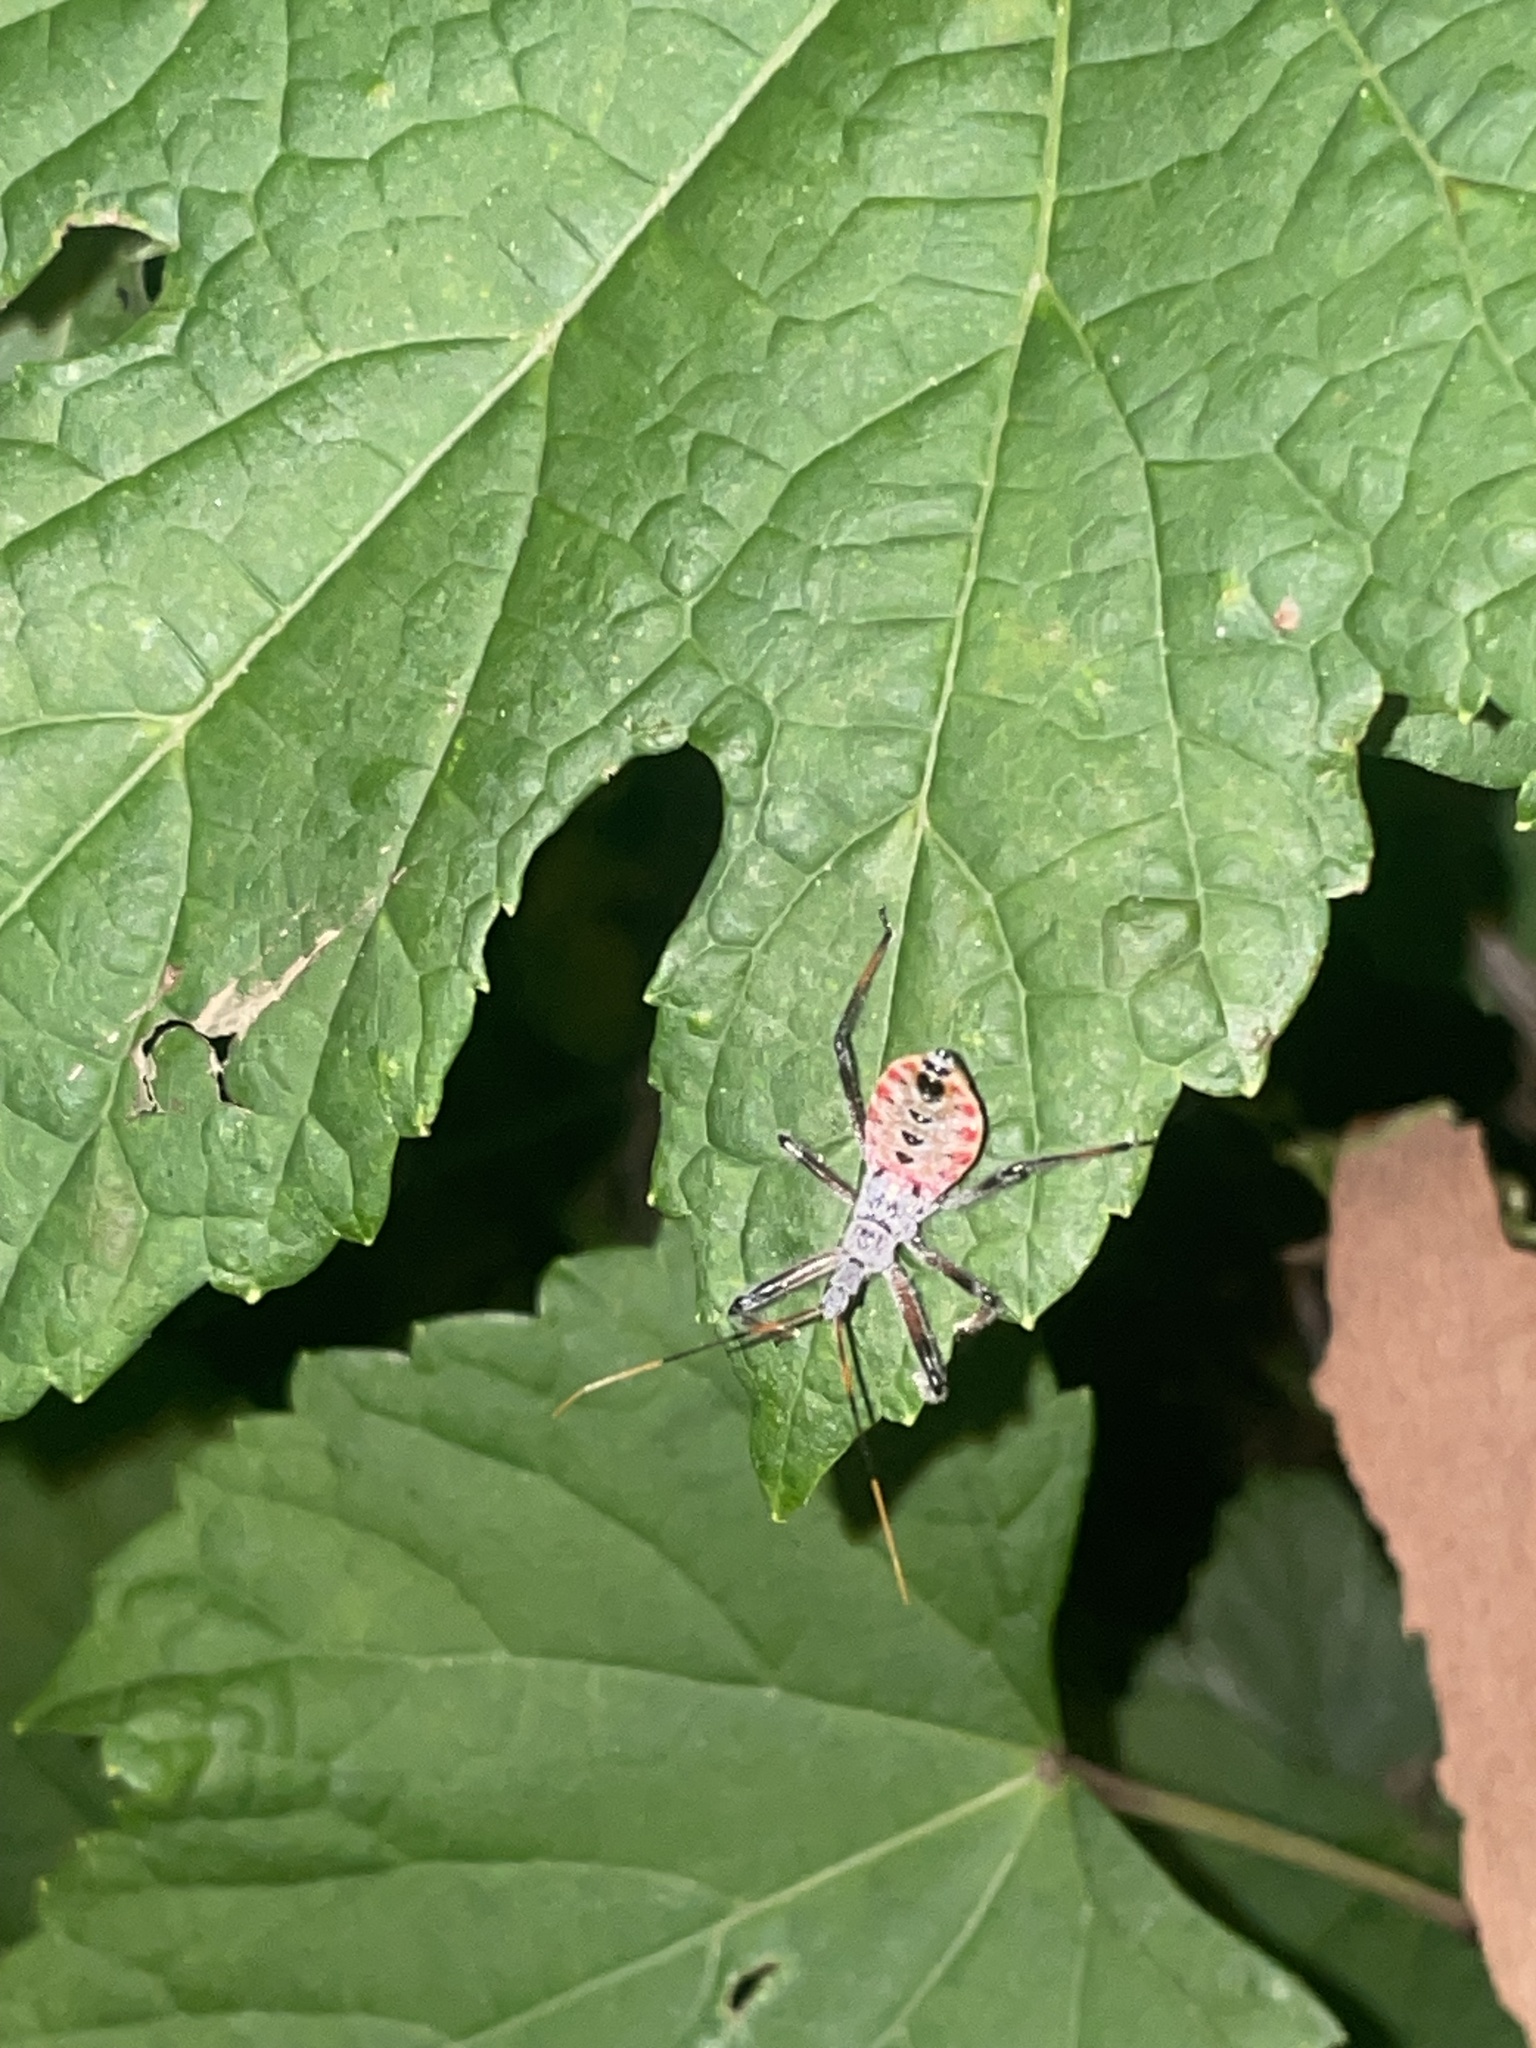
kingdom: Animalia
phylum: Arthropoda
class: Insecta
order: Hemiptera
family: Reduviidae
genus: Arilus
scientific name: Arilus cristatus
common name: North american wheel bug
